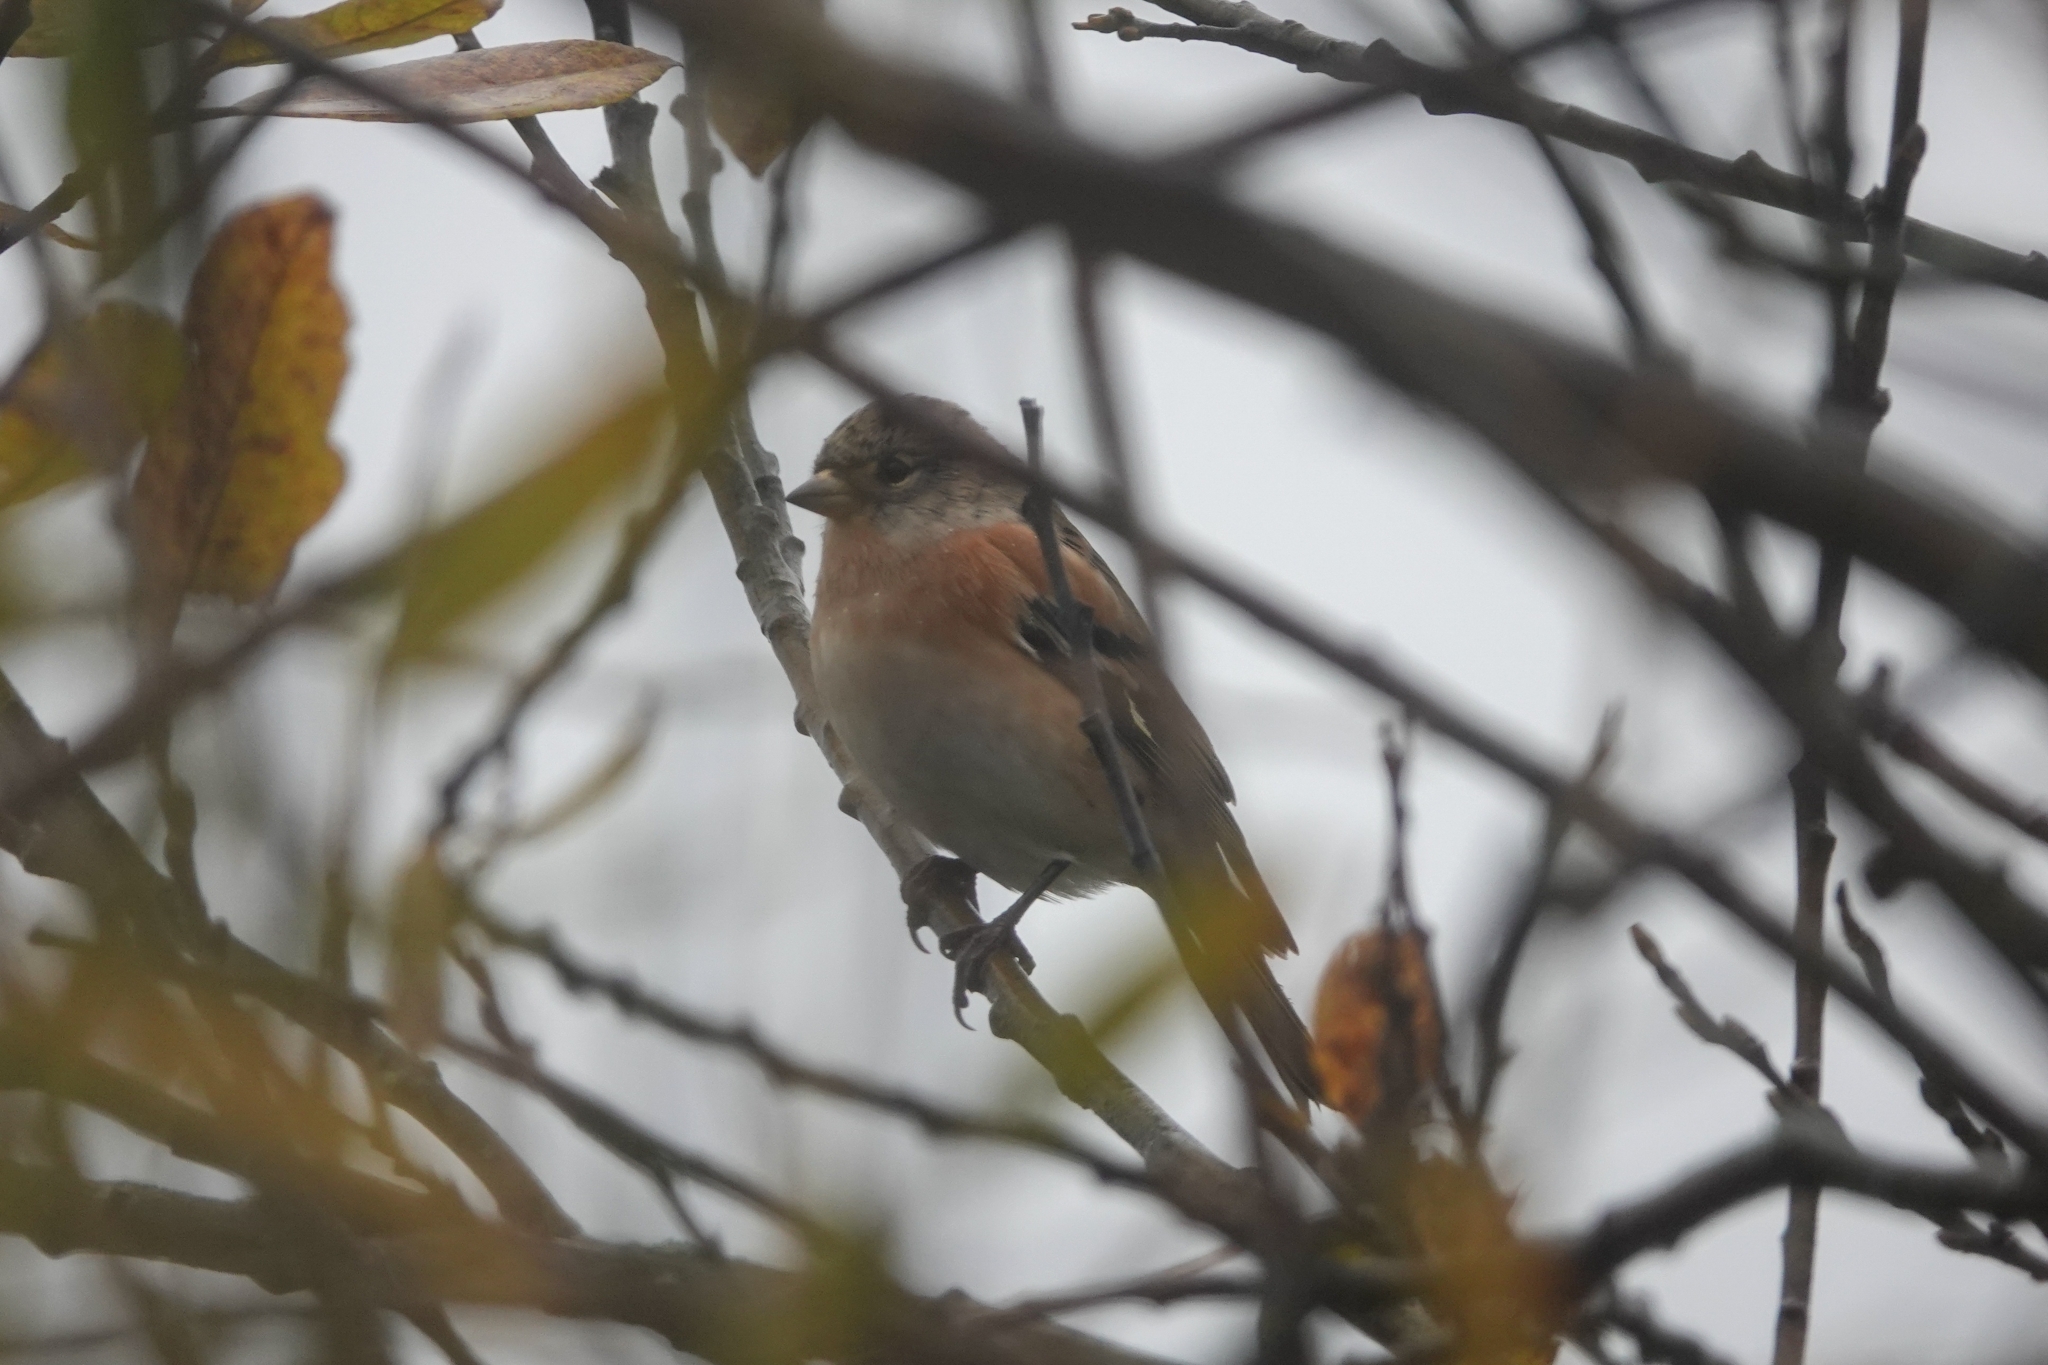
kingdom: Animalia
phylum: Chordata
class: Aves
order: Passeriformes
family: Fringillidae
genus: Fringilla
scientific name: Fringilla montifringilla
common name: Brambling
